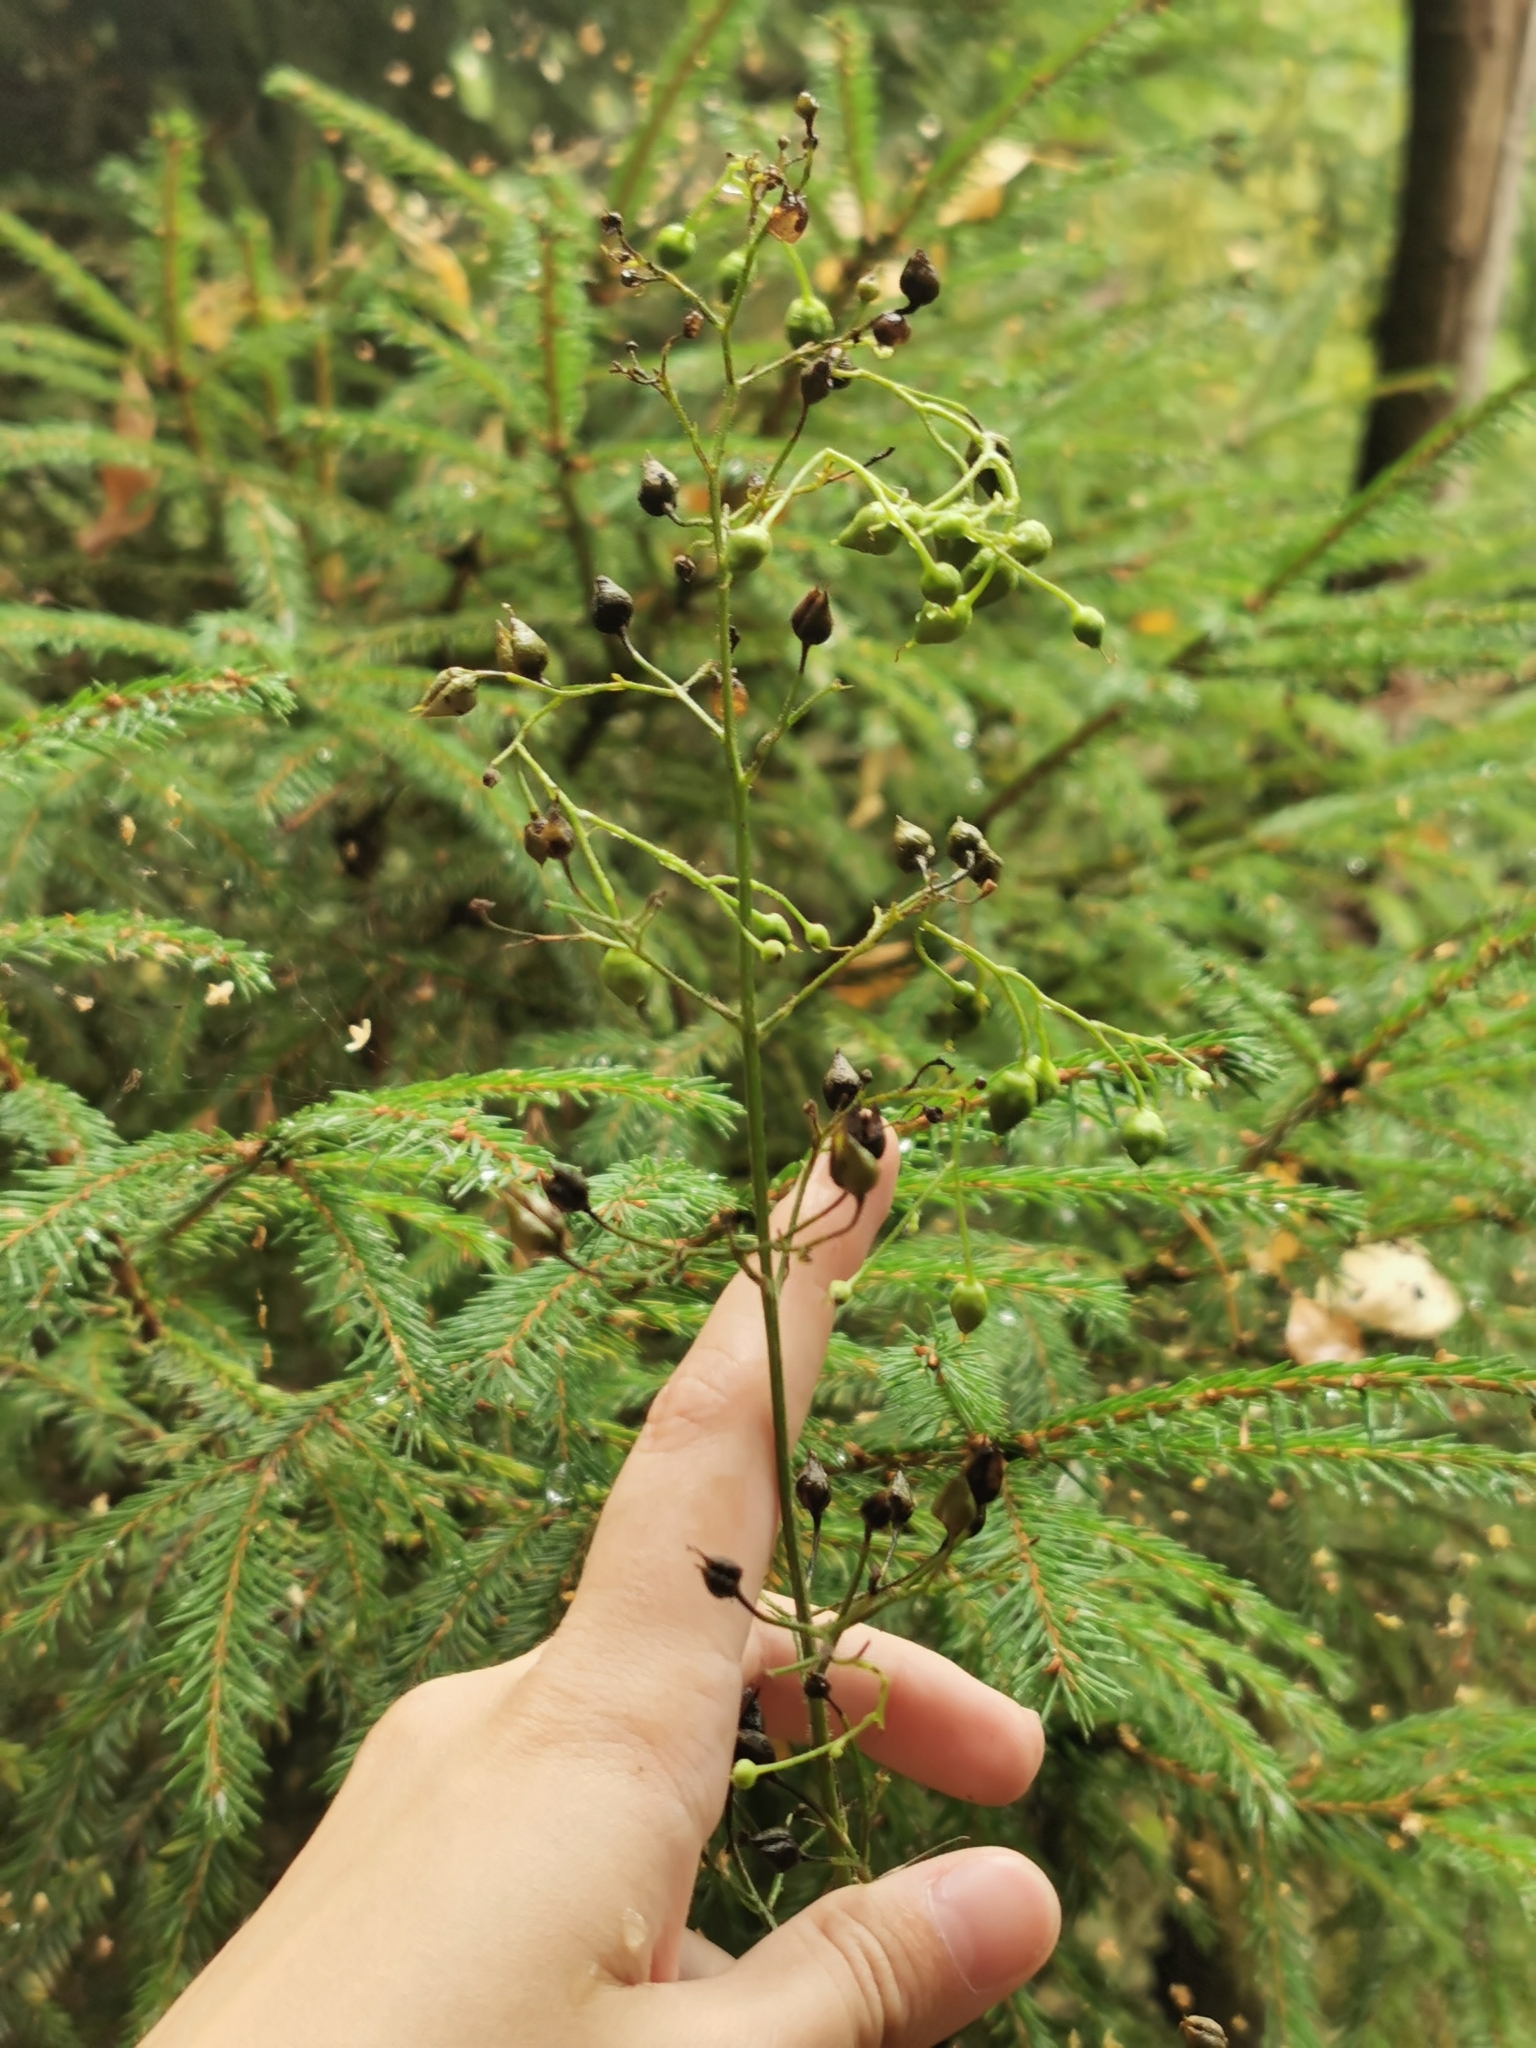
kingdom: Plantae
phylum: Tracheophyta
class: Magnoliopsida
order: Lamiales
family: Scrophulariaceae
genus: Scrophularia
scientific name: Scrophularia nodosa
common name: Common figwort
